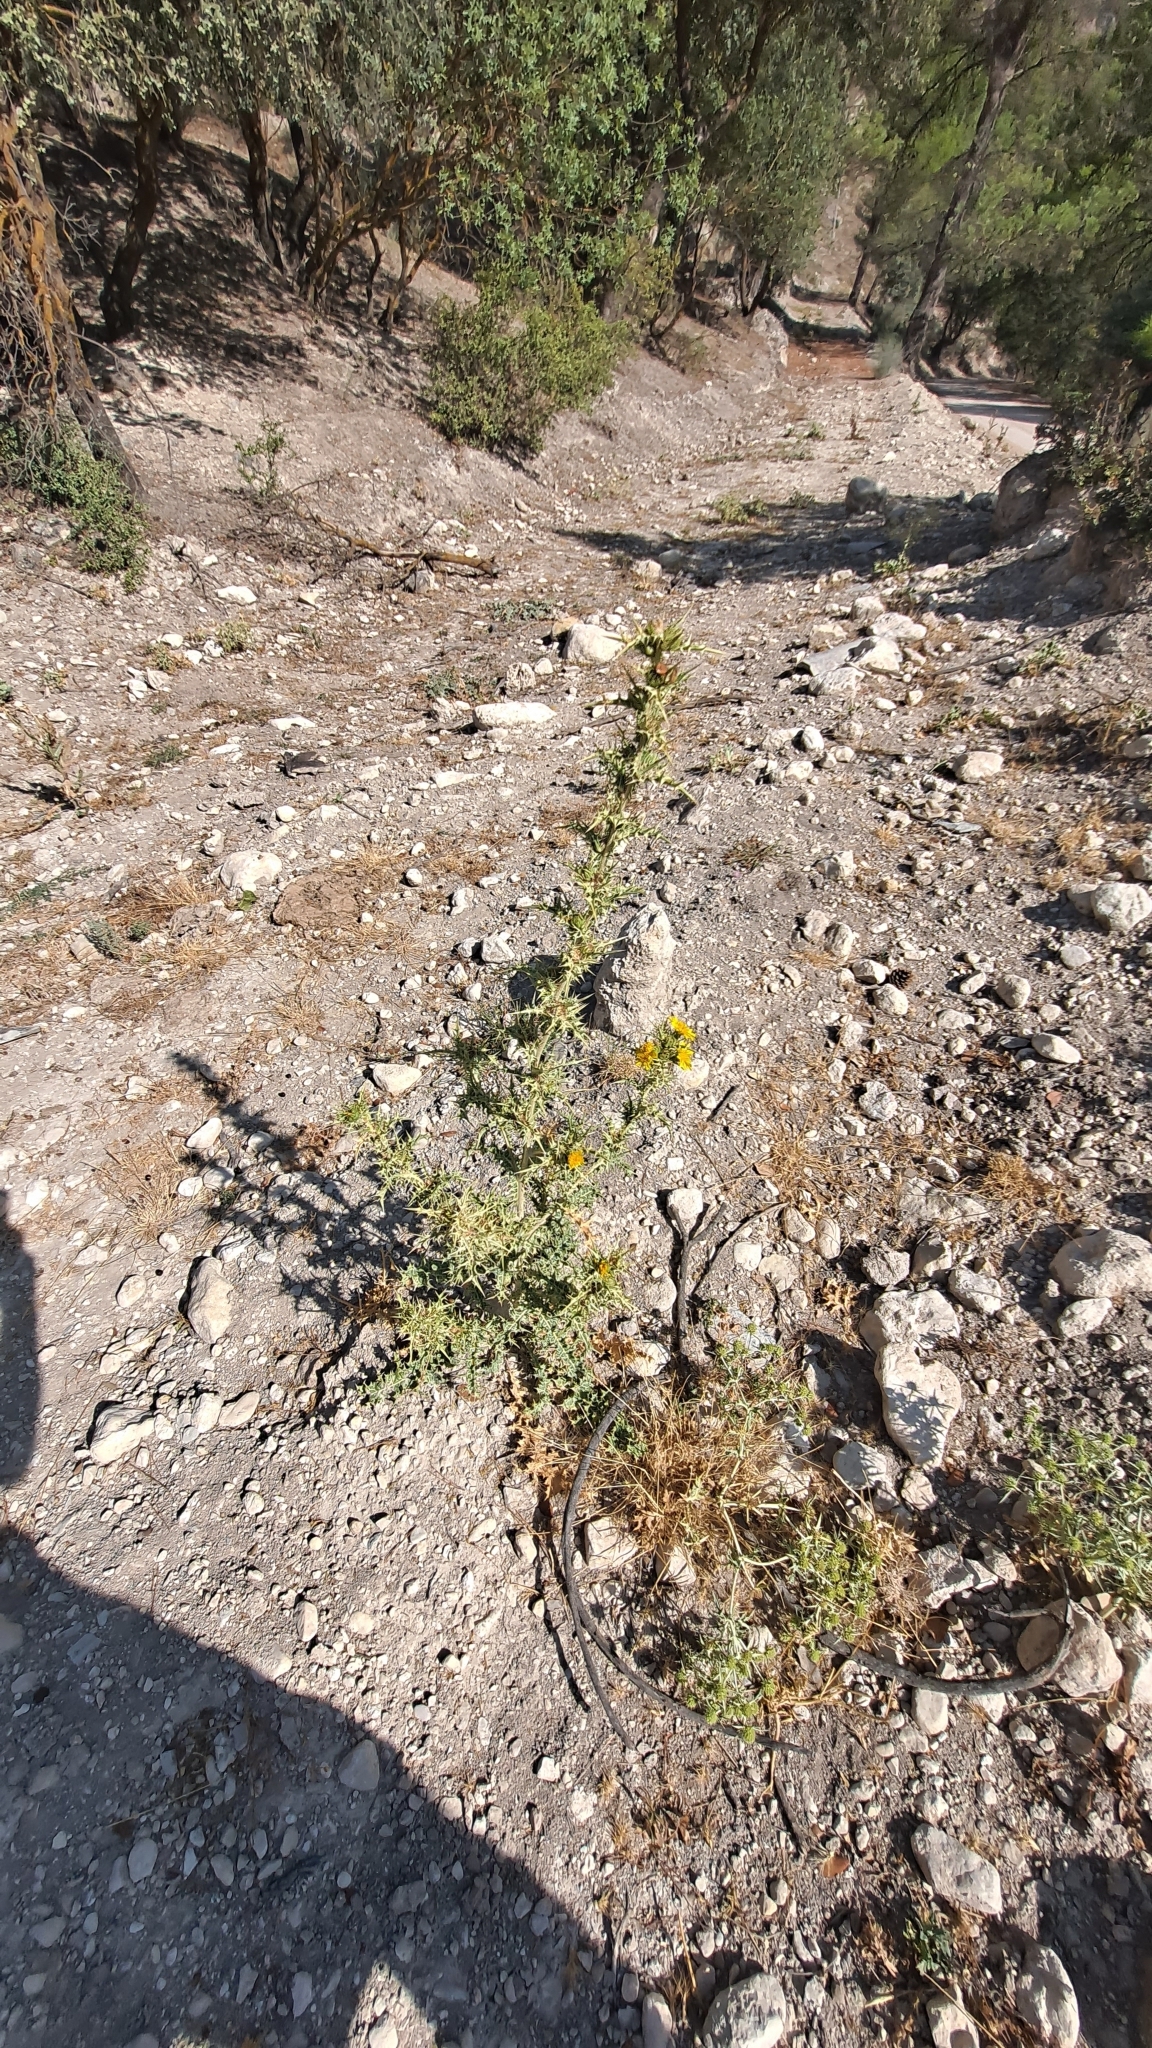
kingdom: Plantae
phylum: Tracheophyta
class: Magnoliopsida
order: Asterales
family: Asteraceae
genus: Scolymus
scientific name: Scolymus hispanicus
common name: Golden thistle
